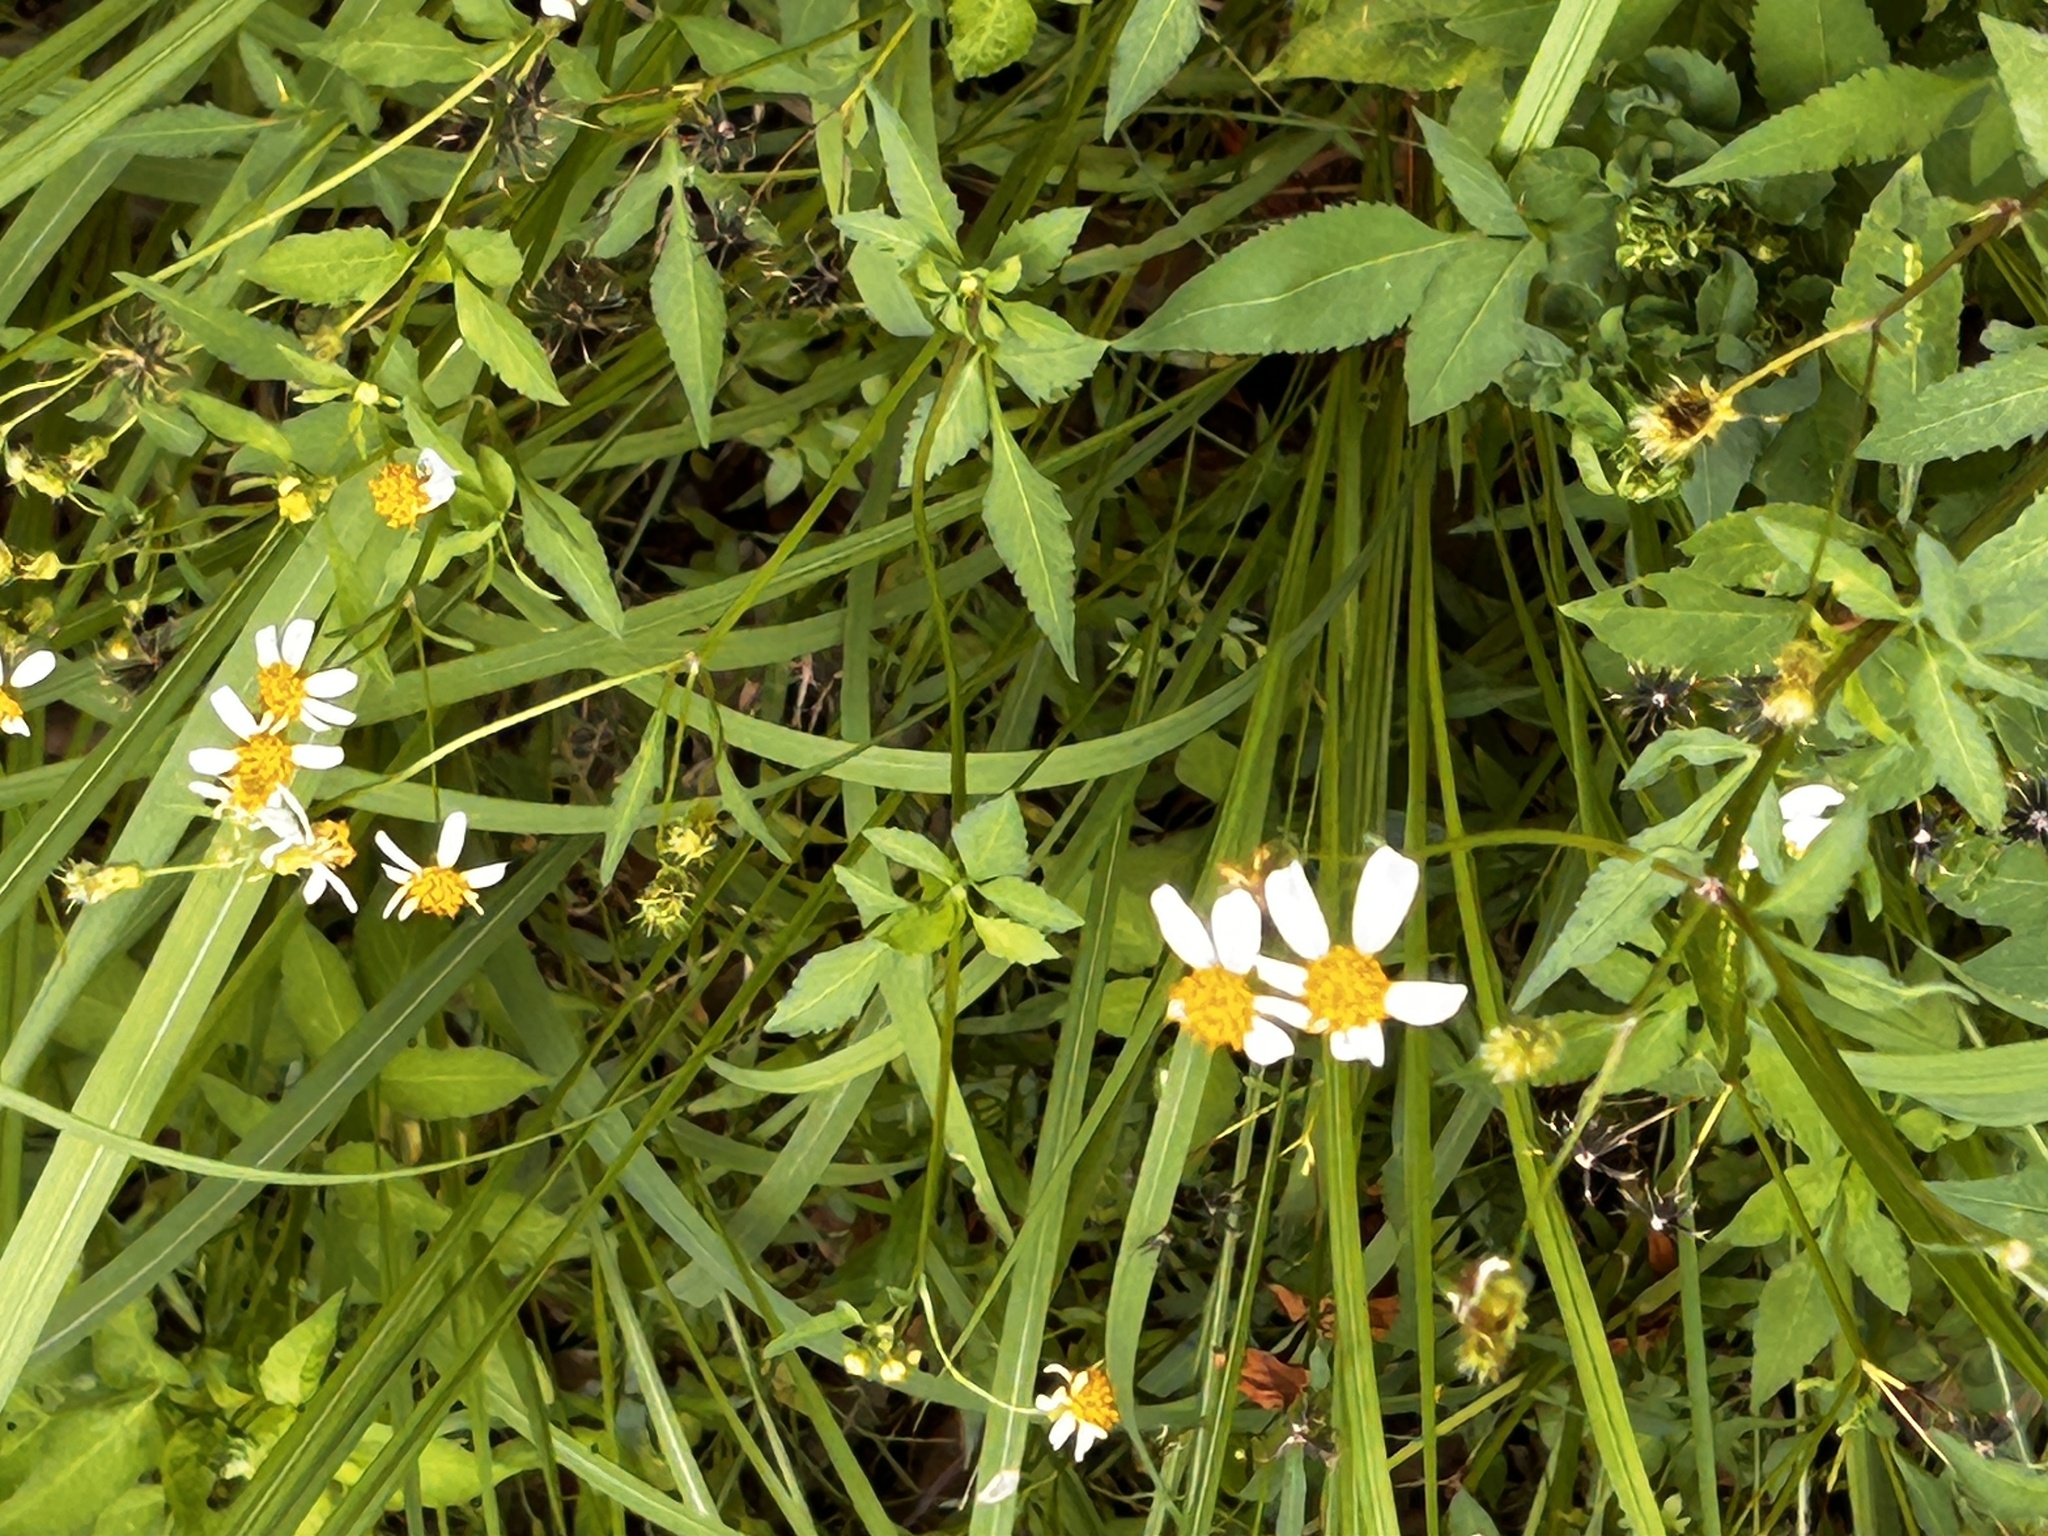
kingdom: Plantae
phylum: Tracheophyta
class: Magnoliopsida
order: Asterales
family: Asteraceae
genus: Bidens
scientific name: Bidens alba
